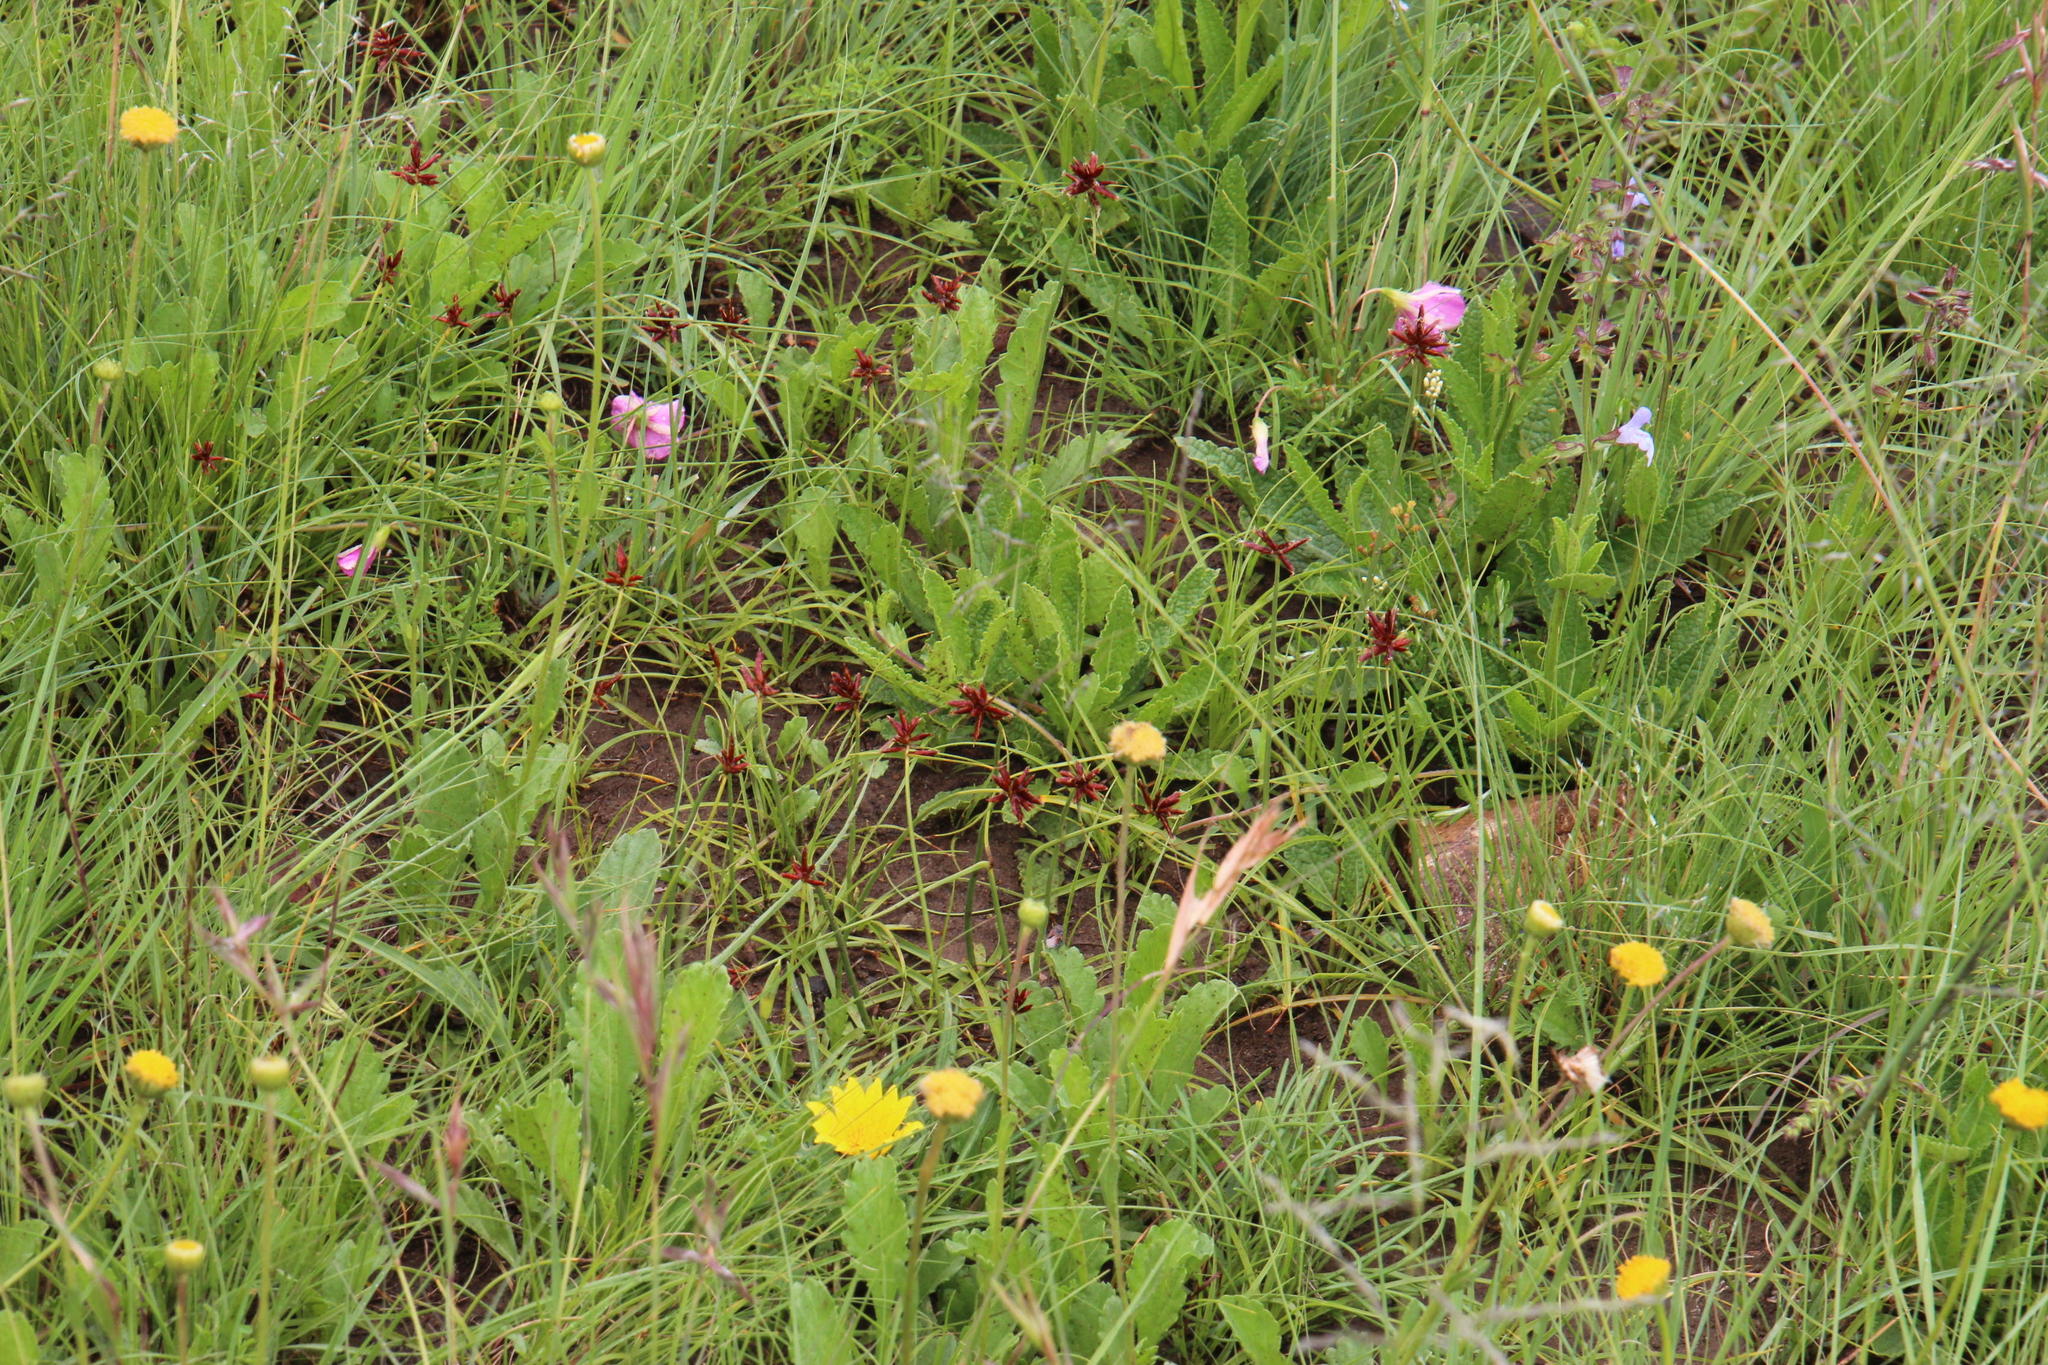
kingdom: Plantae
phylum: Tracheophyta
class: Liliopsida
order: Poales
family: Cyperaceae
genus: Cyperus
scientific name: Cyperus usitatus
